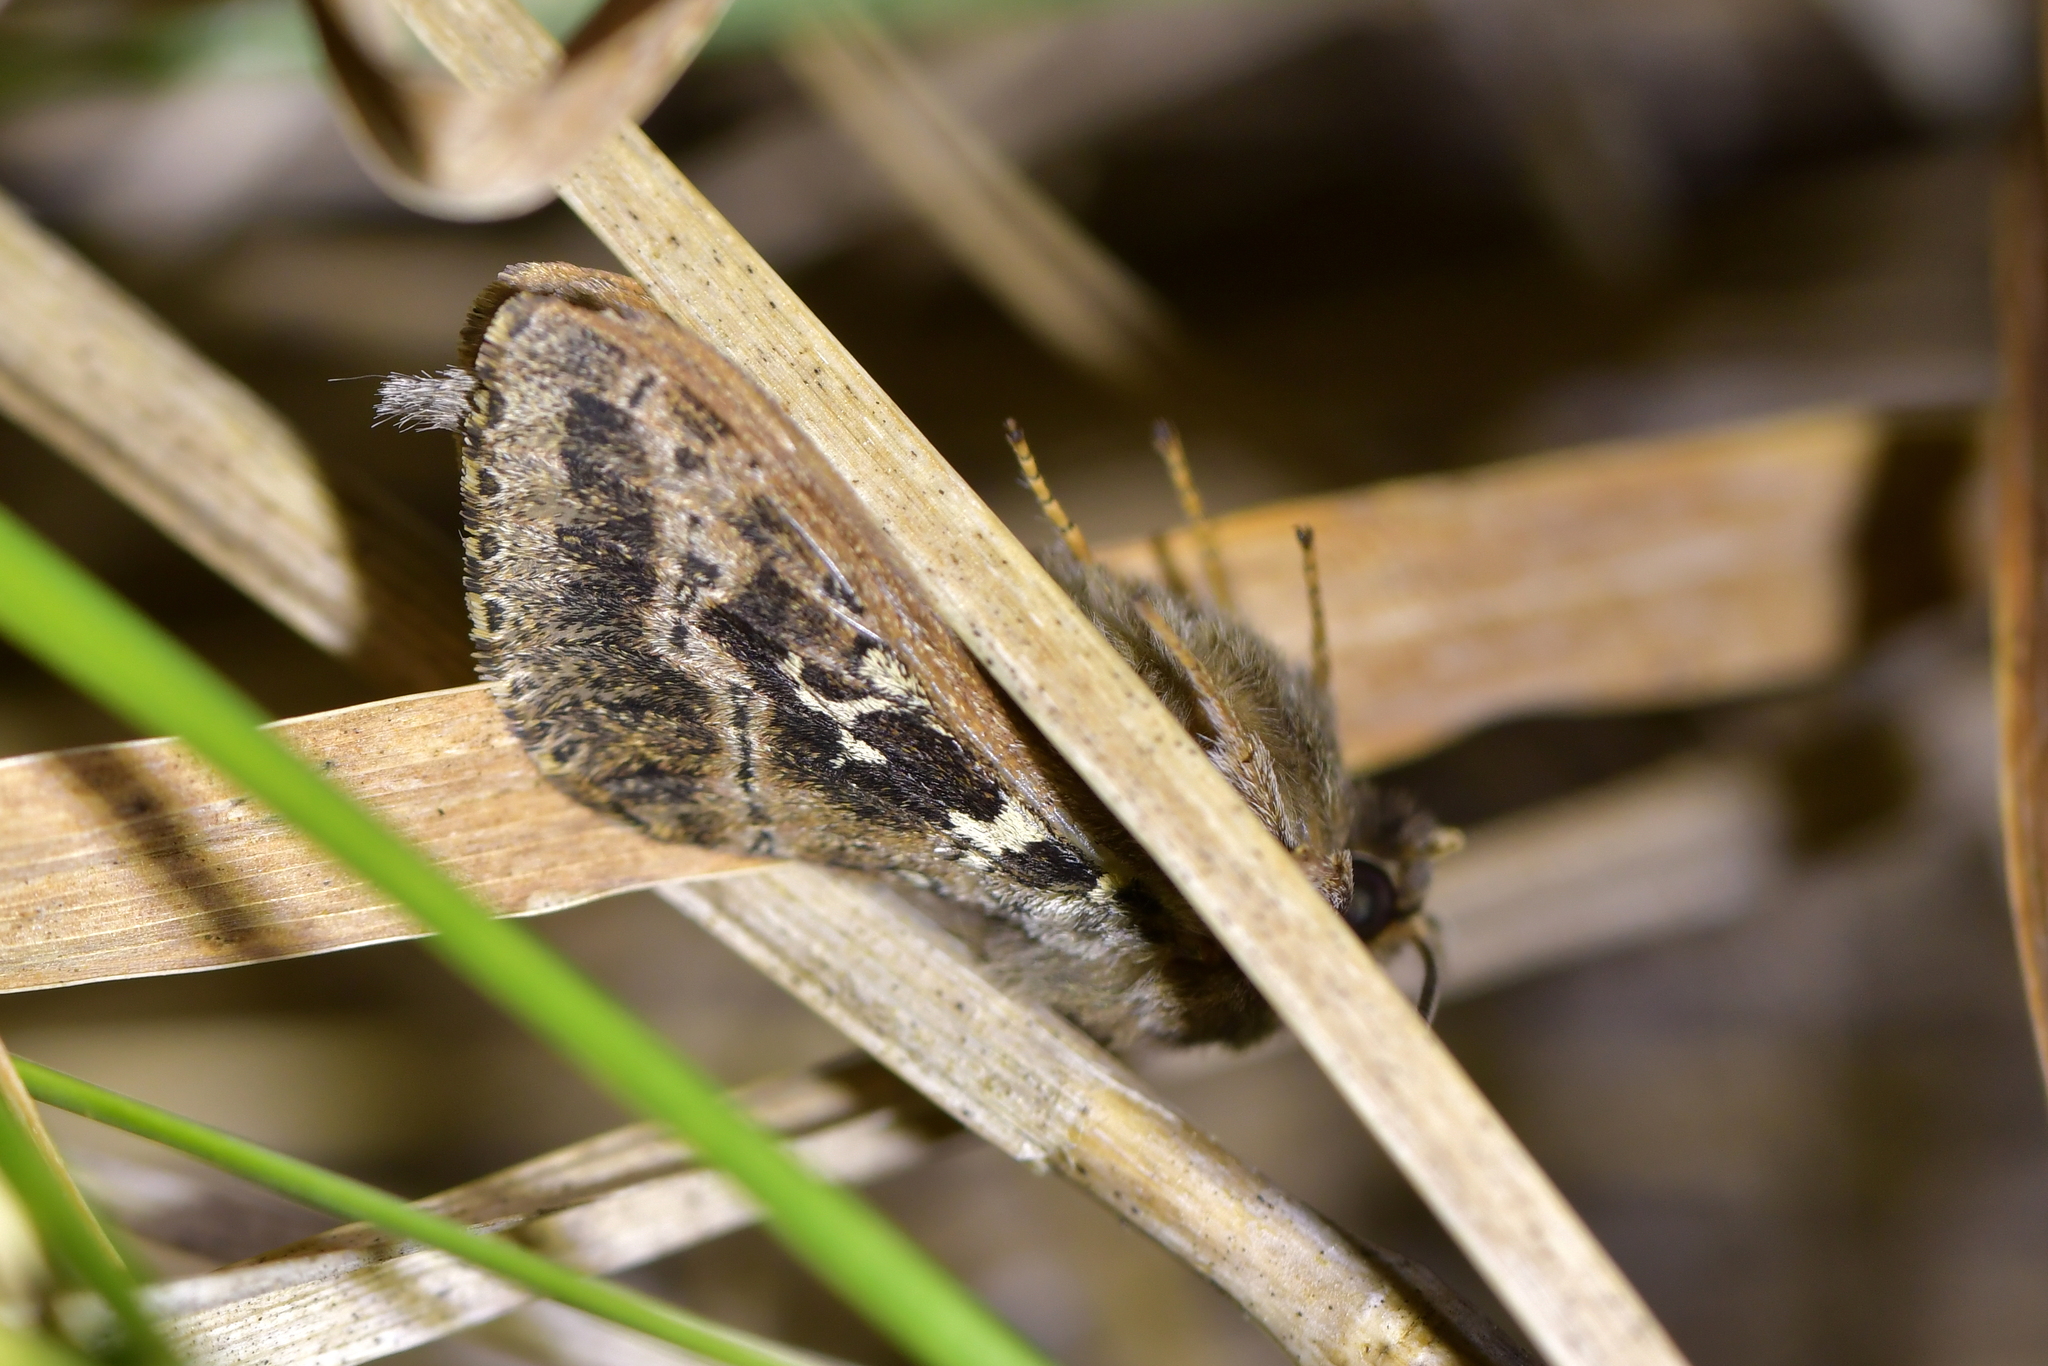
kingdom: Animalia
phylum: Arthropoda
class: Insecta
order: Lepidoptera
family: Hepialidae
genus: Wiseana
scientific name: Wiseana cervinata
